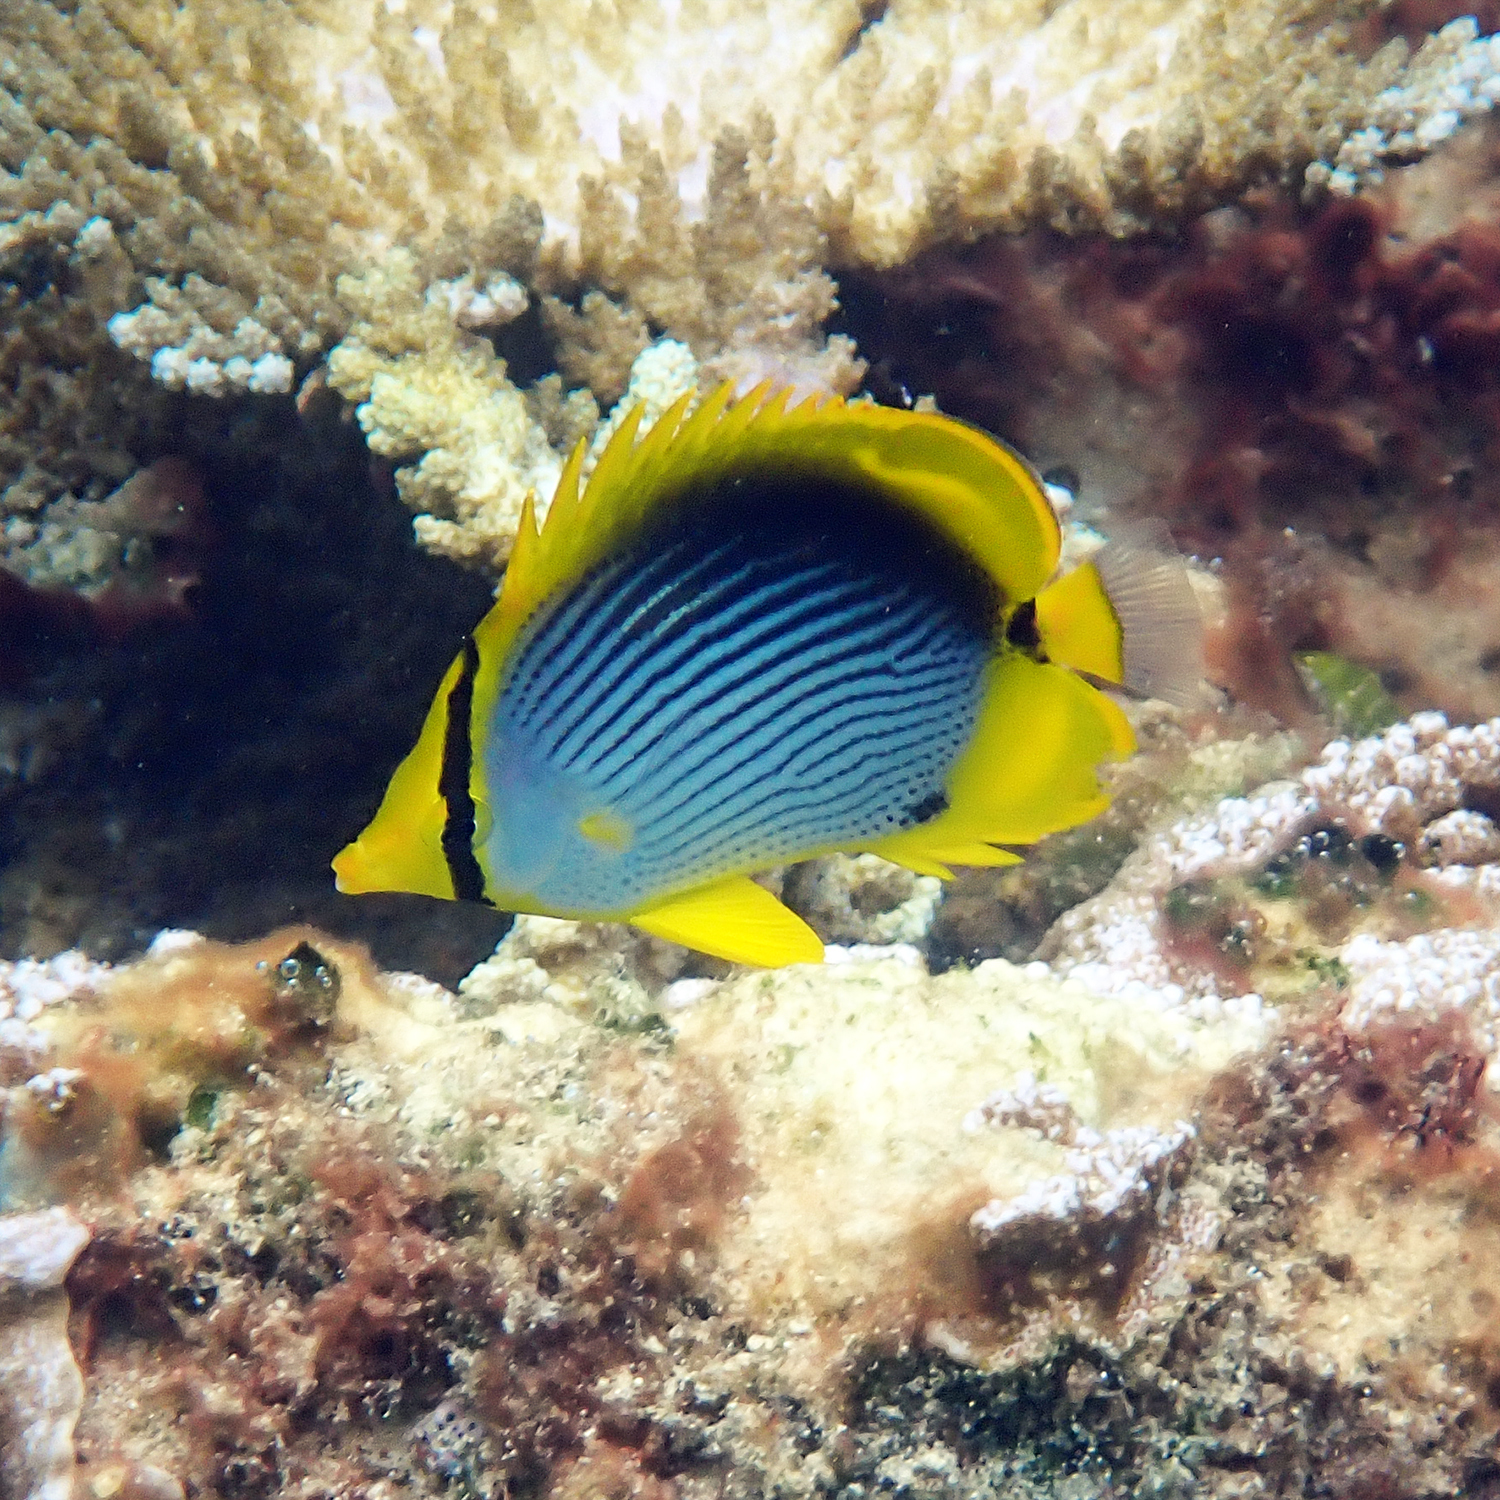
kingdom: Animalia
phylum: Chordata
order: Perciformes
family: Chaetodontidae
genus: Chaetodon
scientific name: Chaetodon melannotus
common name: Blackback butterflyfish
